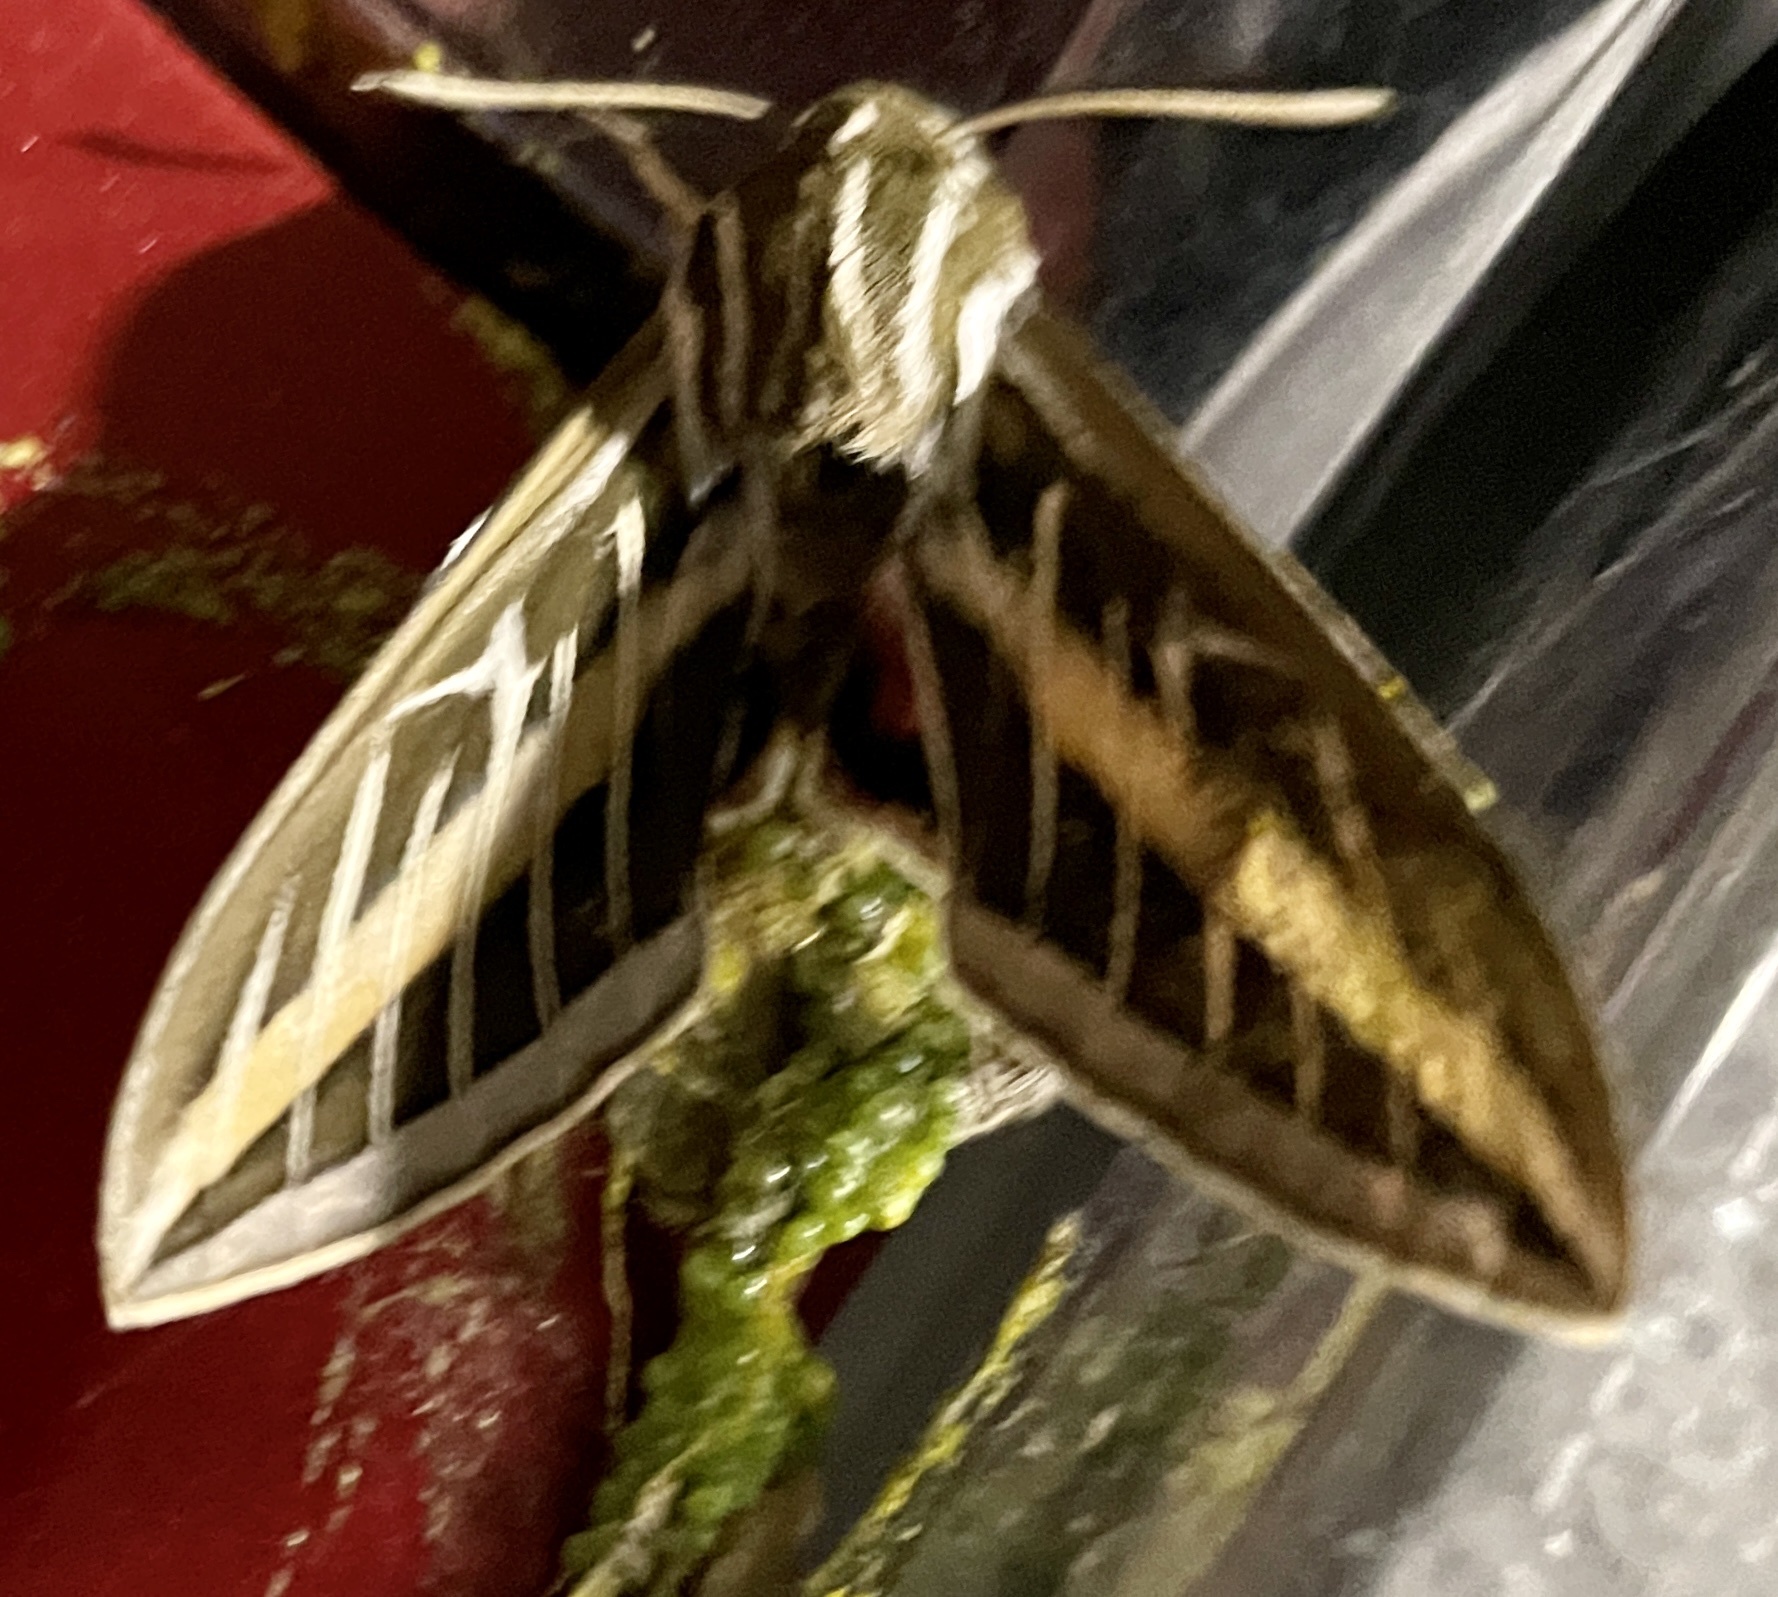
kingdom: Animalia
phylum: Arthropoda
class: Insecta
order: Lepidoptera
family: Sphingidae
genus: Hyles
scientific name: Hyles lineata
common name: White-lined sphinx
